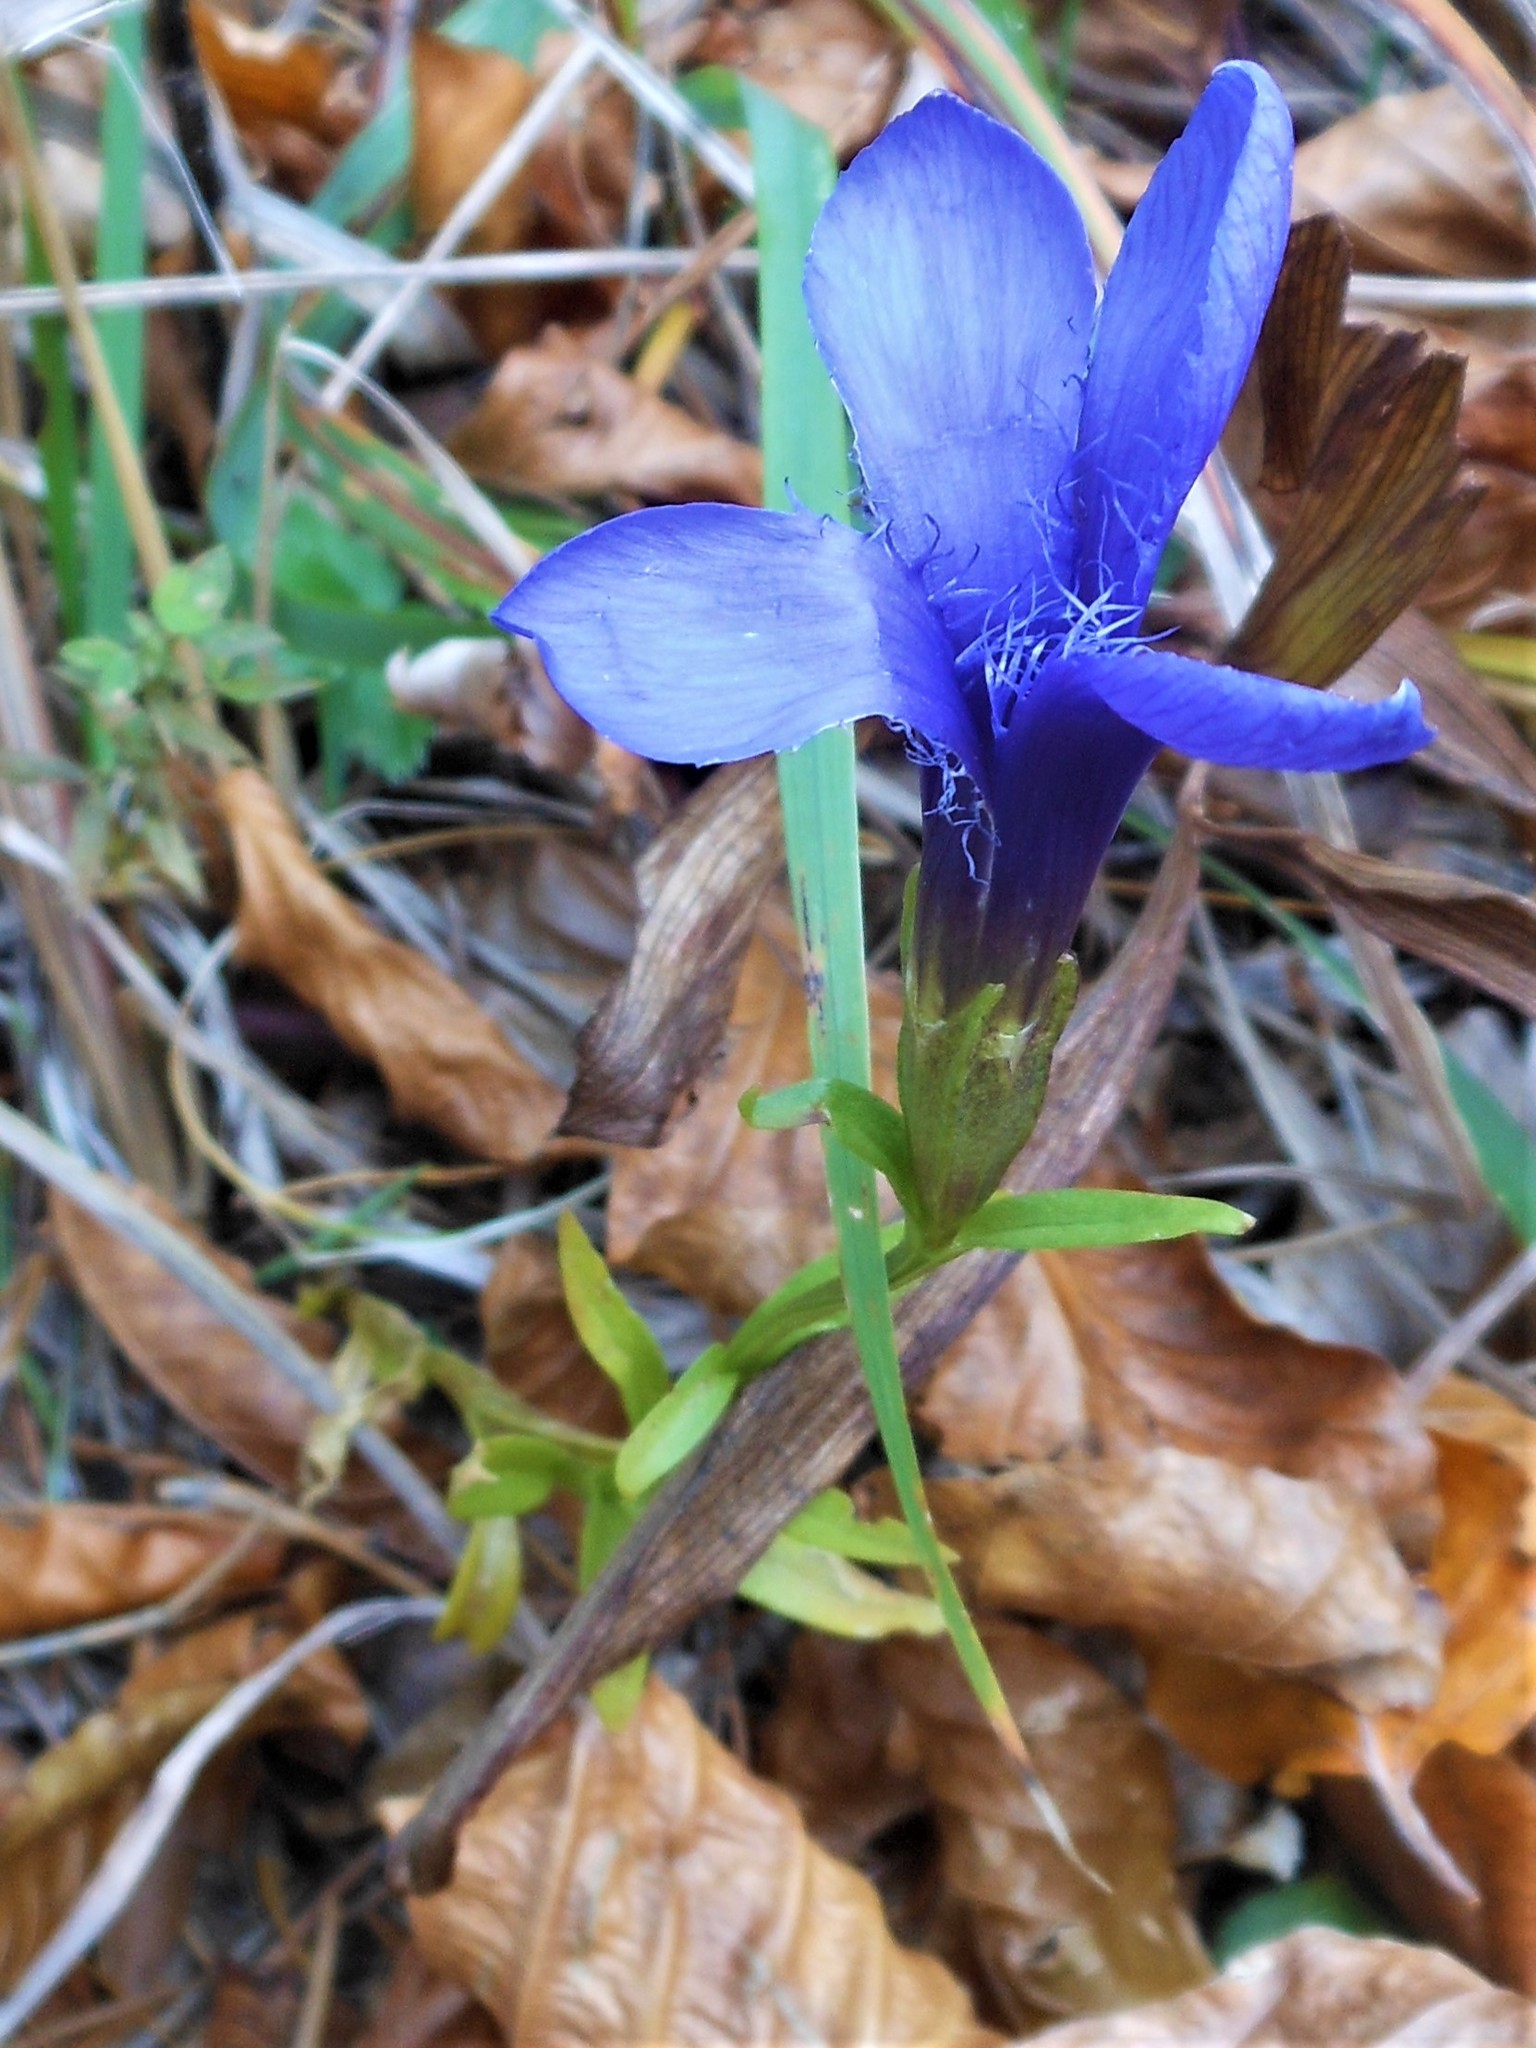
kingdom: Plantae
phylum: Tracheophyta
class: Magnoliopsida
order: Gentianales
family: Gentianaceae
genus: Gentianopsis
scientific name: Gentianopsis ciliata
